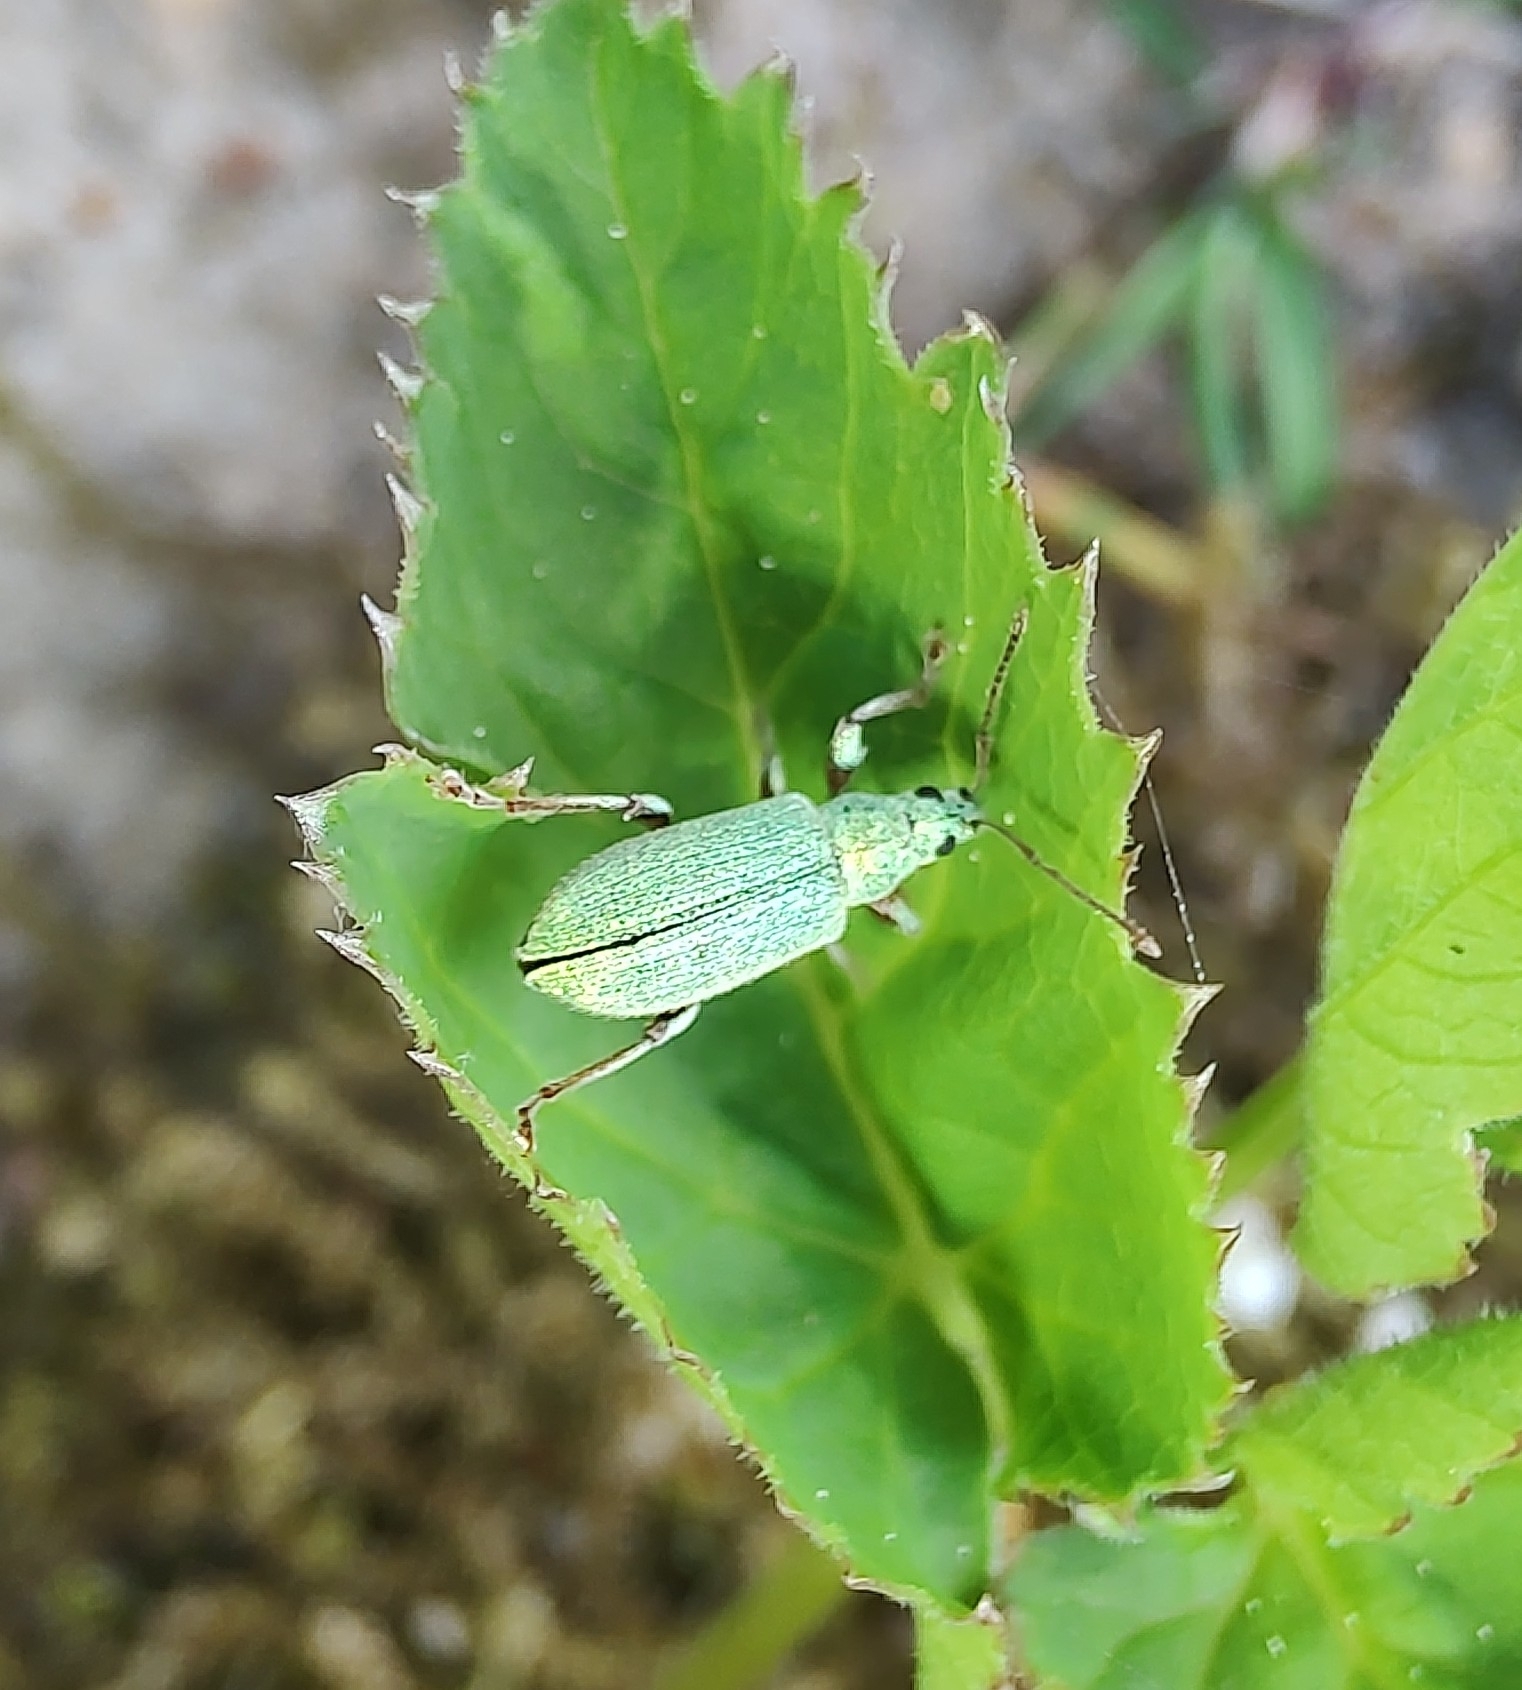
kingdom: Animalia
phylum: Arthropoda
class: Insecta
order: Coleoptera
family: Curculionidae
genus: Phyllobius
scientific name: Phyllobius argentatus
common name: Silver-green leaf weevil
